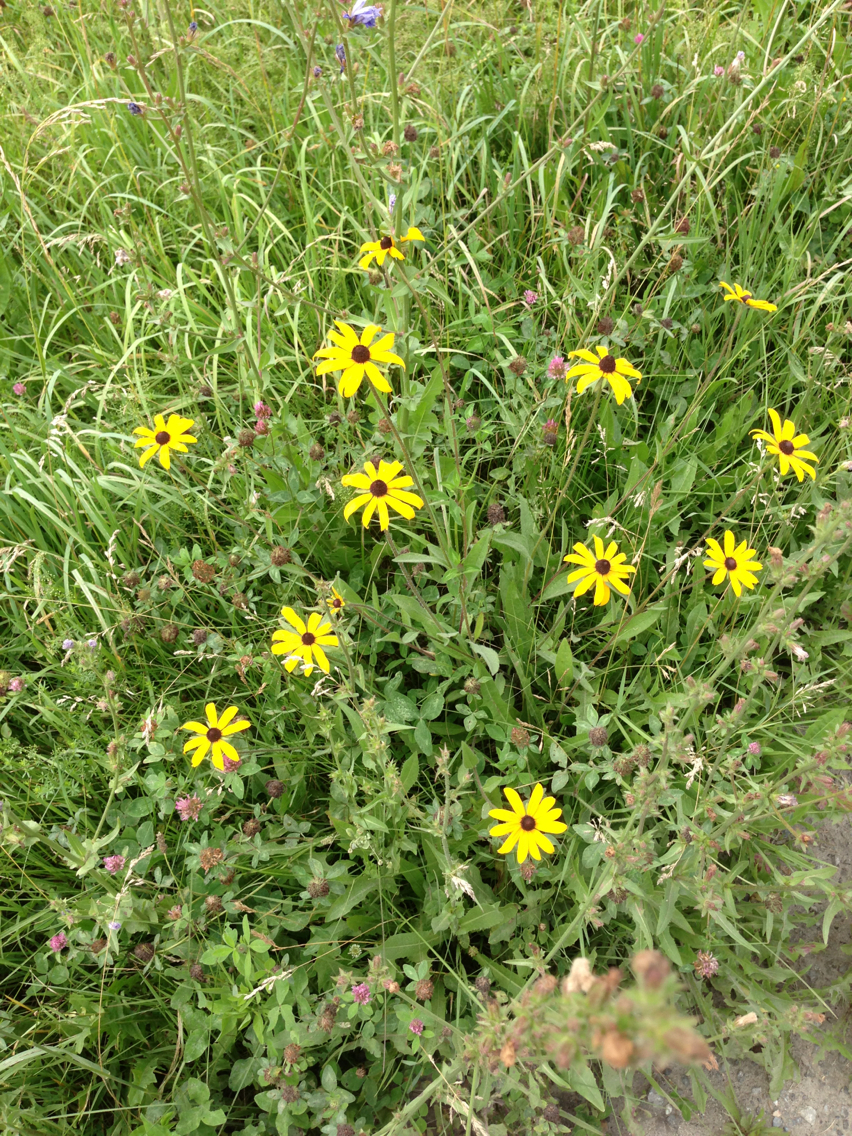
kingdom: Plantae
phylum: Tracheophyta
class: Magnoliopsida
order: Asterales
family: Asteraceae
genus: Rudbeckia
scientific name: Rudbeckia hirta
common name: Black-eyed-susan
